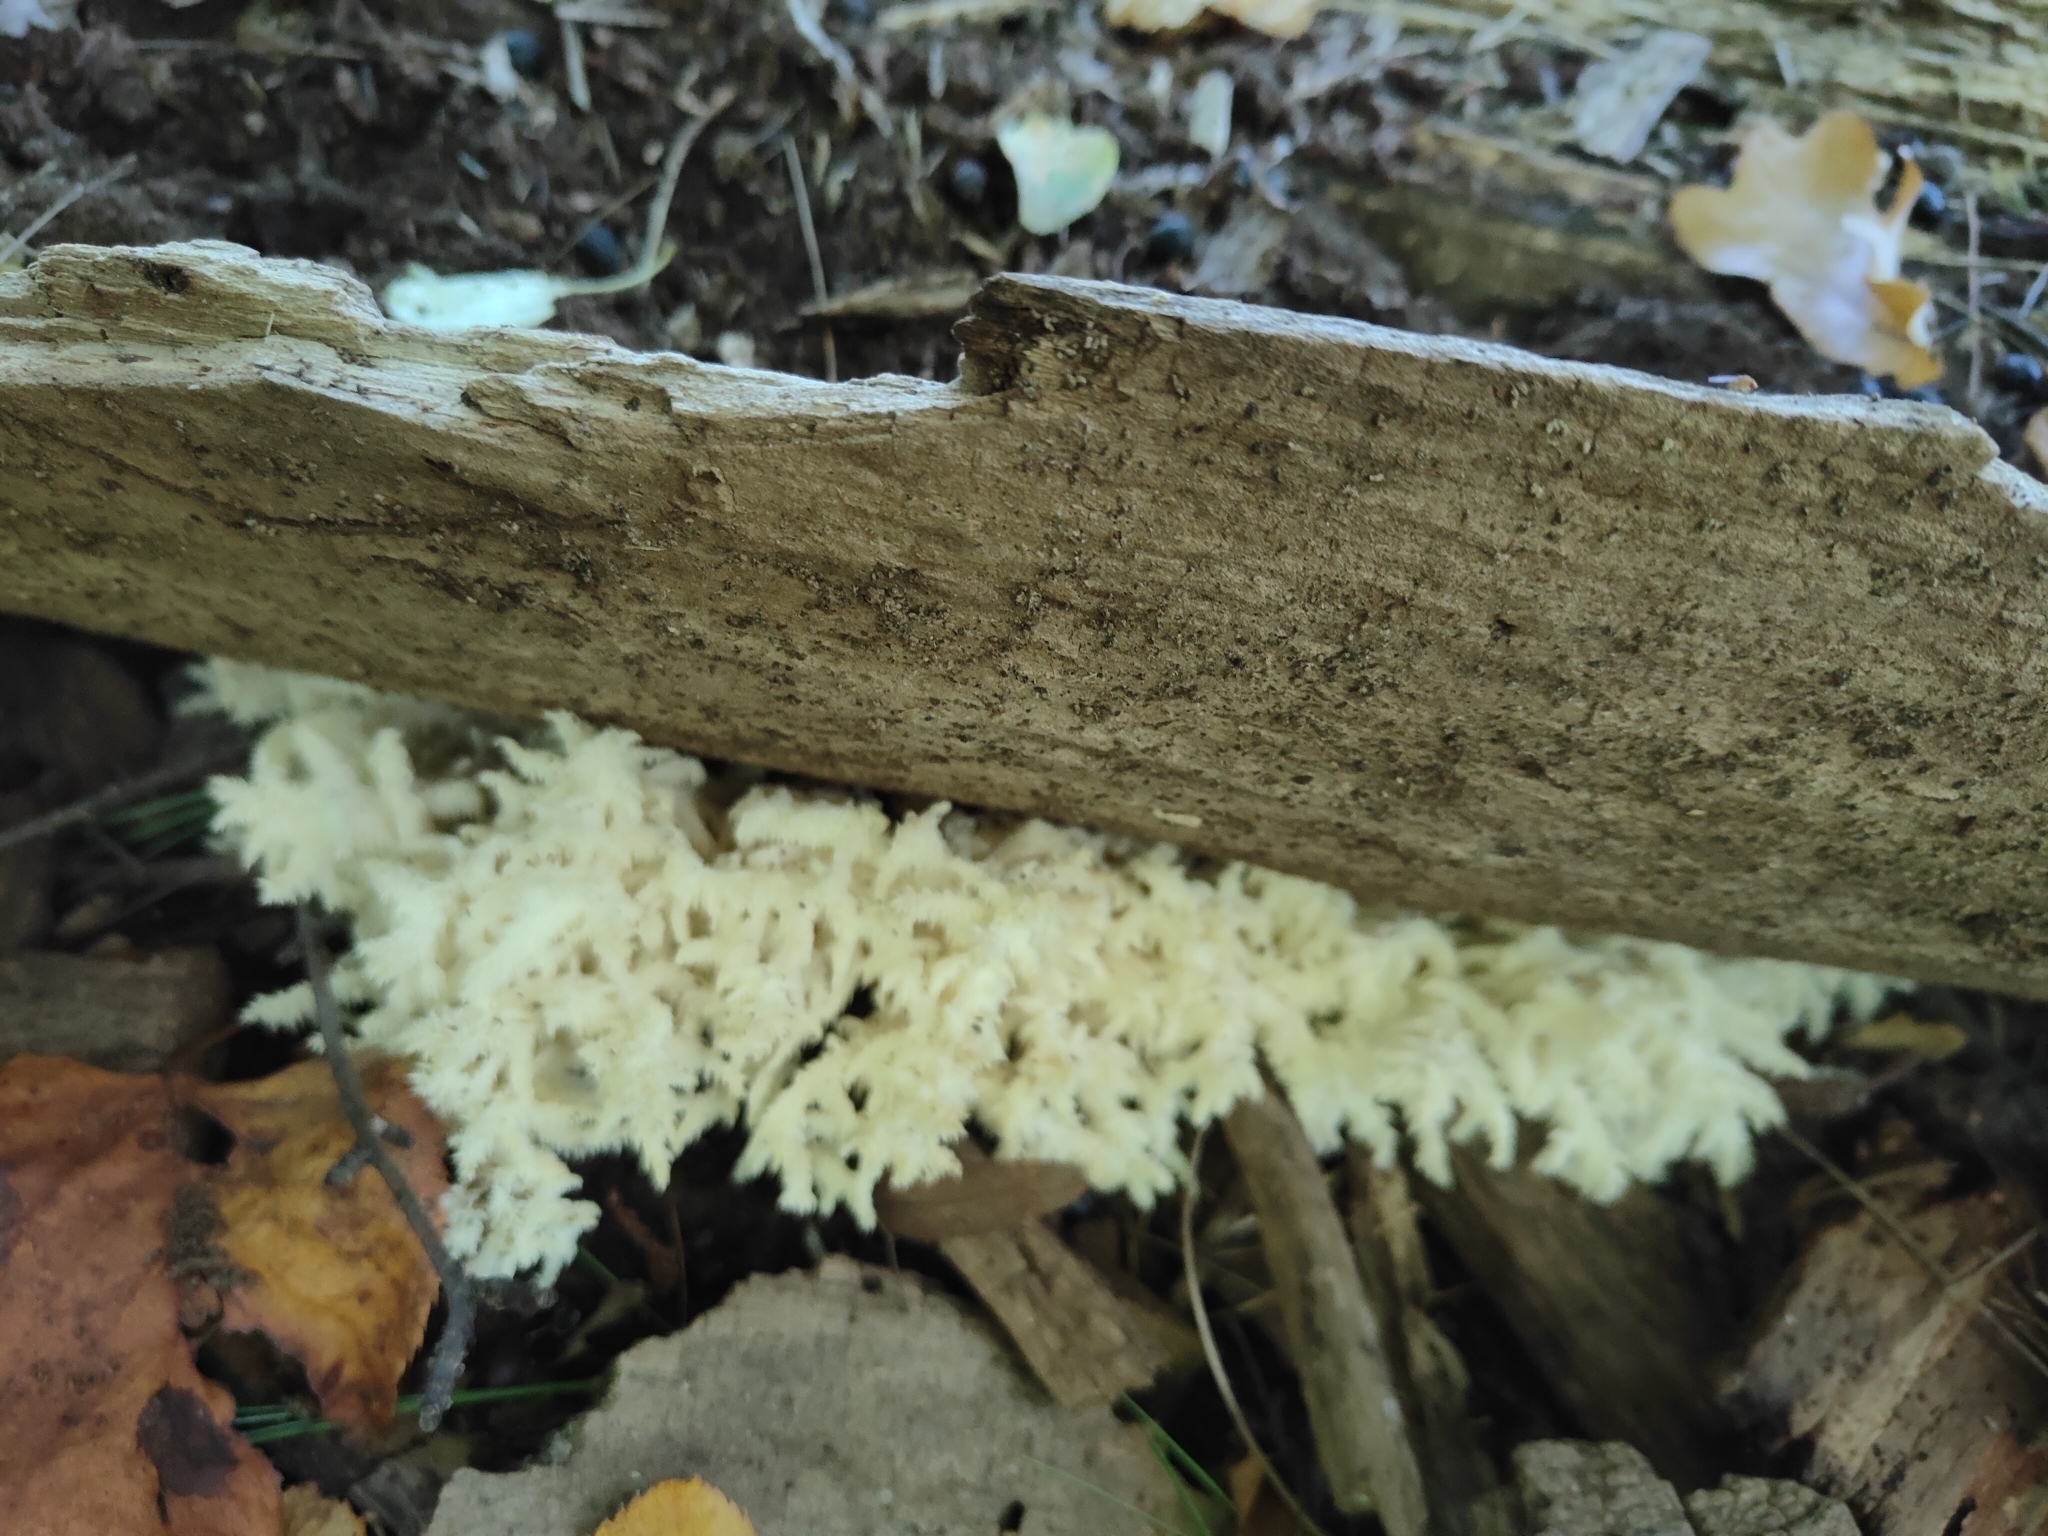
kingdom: Fungi
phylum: Basidiomycota
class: Agaricomycetes
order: Russulales
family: Hericiaceae
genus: Hericium
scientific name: Hericium coralloides
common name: Coral tooth
